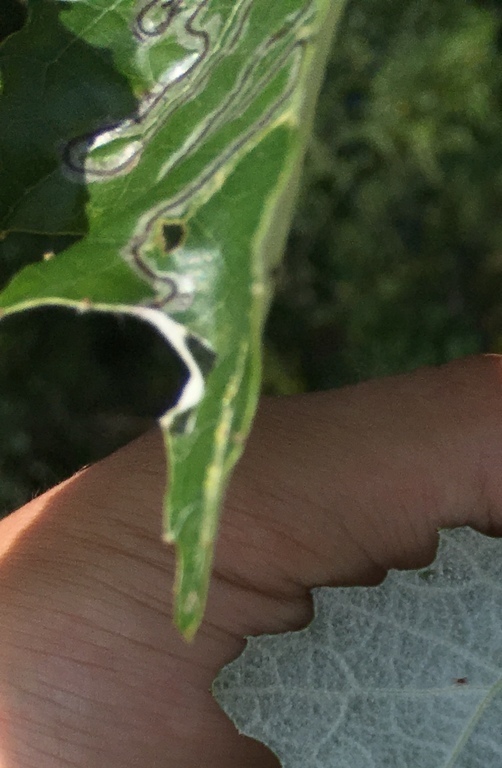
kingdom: Animalia
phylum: Arthropoda
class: Insecta
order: Lepidoptera
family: Gracillariidae
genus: Phyllocnistis
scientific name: Phyllocnistis populiella
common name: Aspen serpentine leafminer moth
